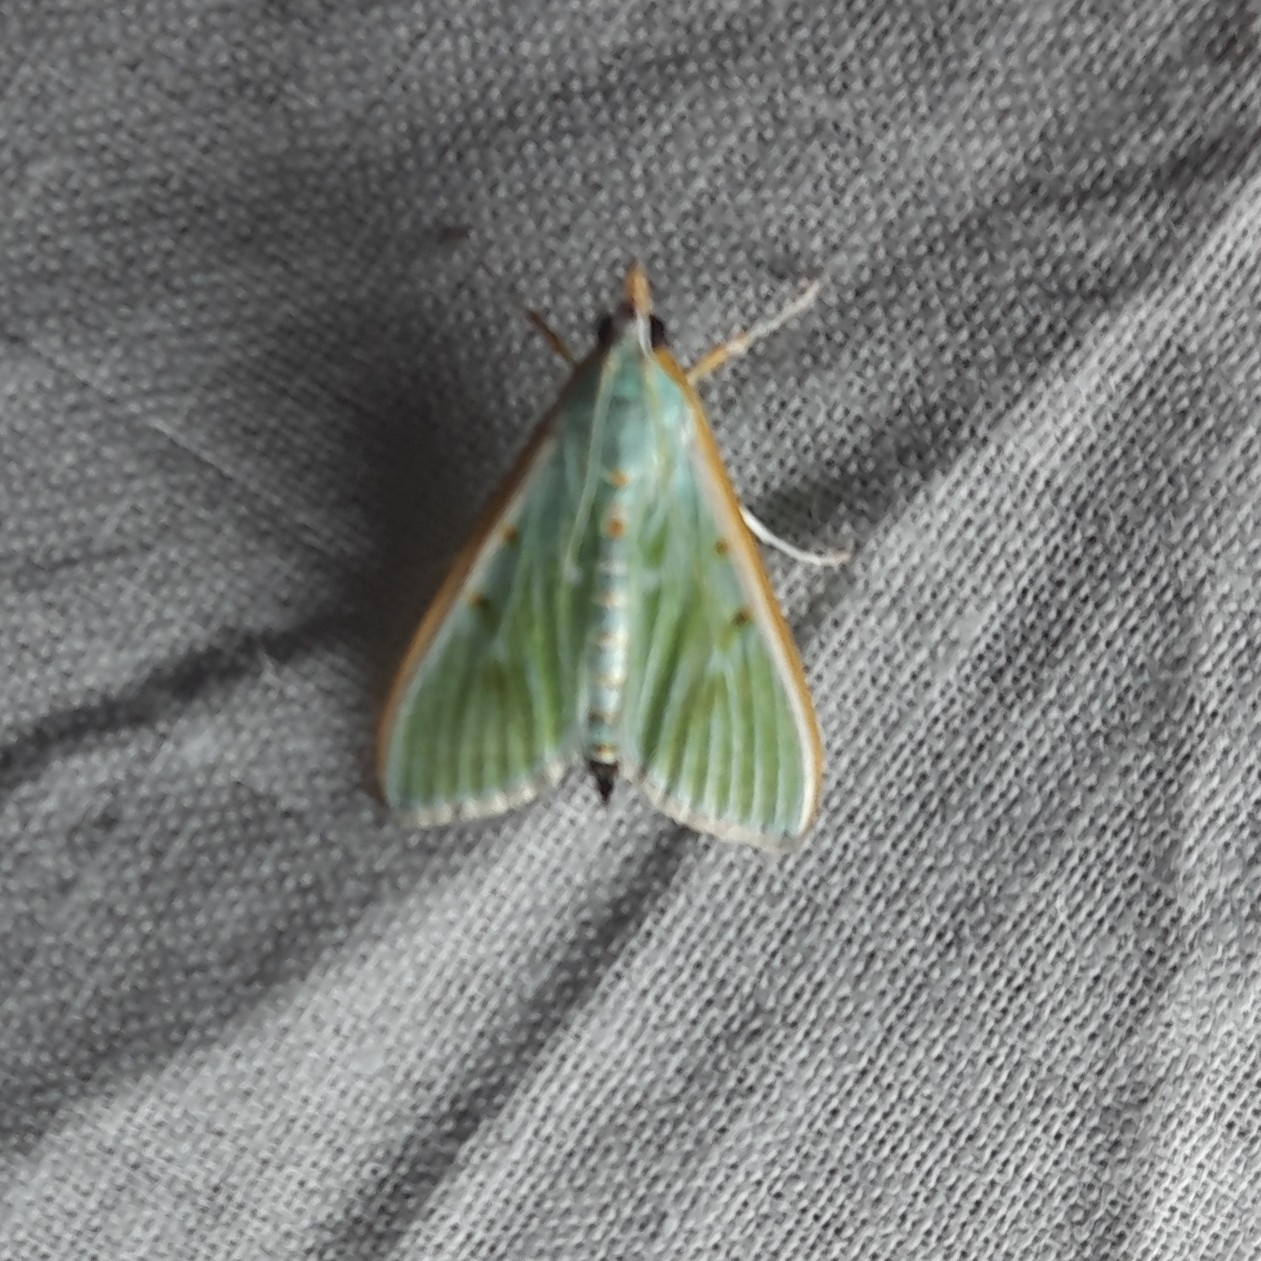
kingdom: Animalia
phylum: Arthropoda
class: Insecta
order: Lepidoptera
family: Crambidae
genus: Arthroschista
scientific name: Arthroschista hilaralis
